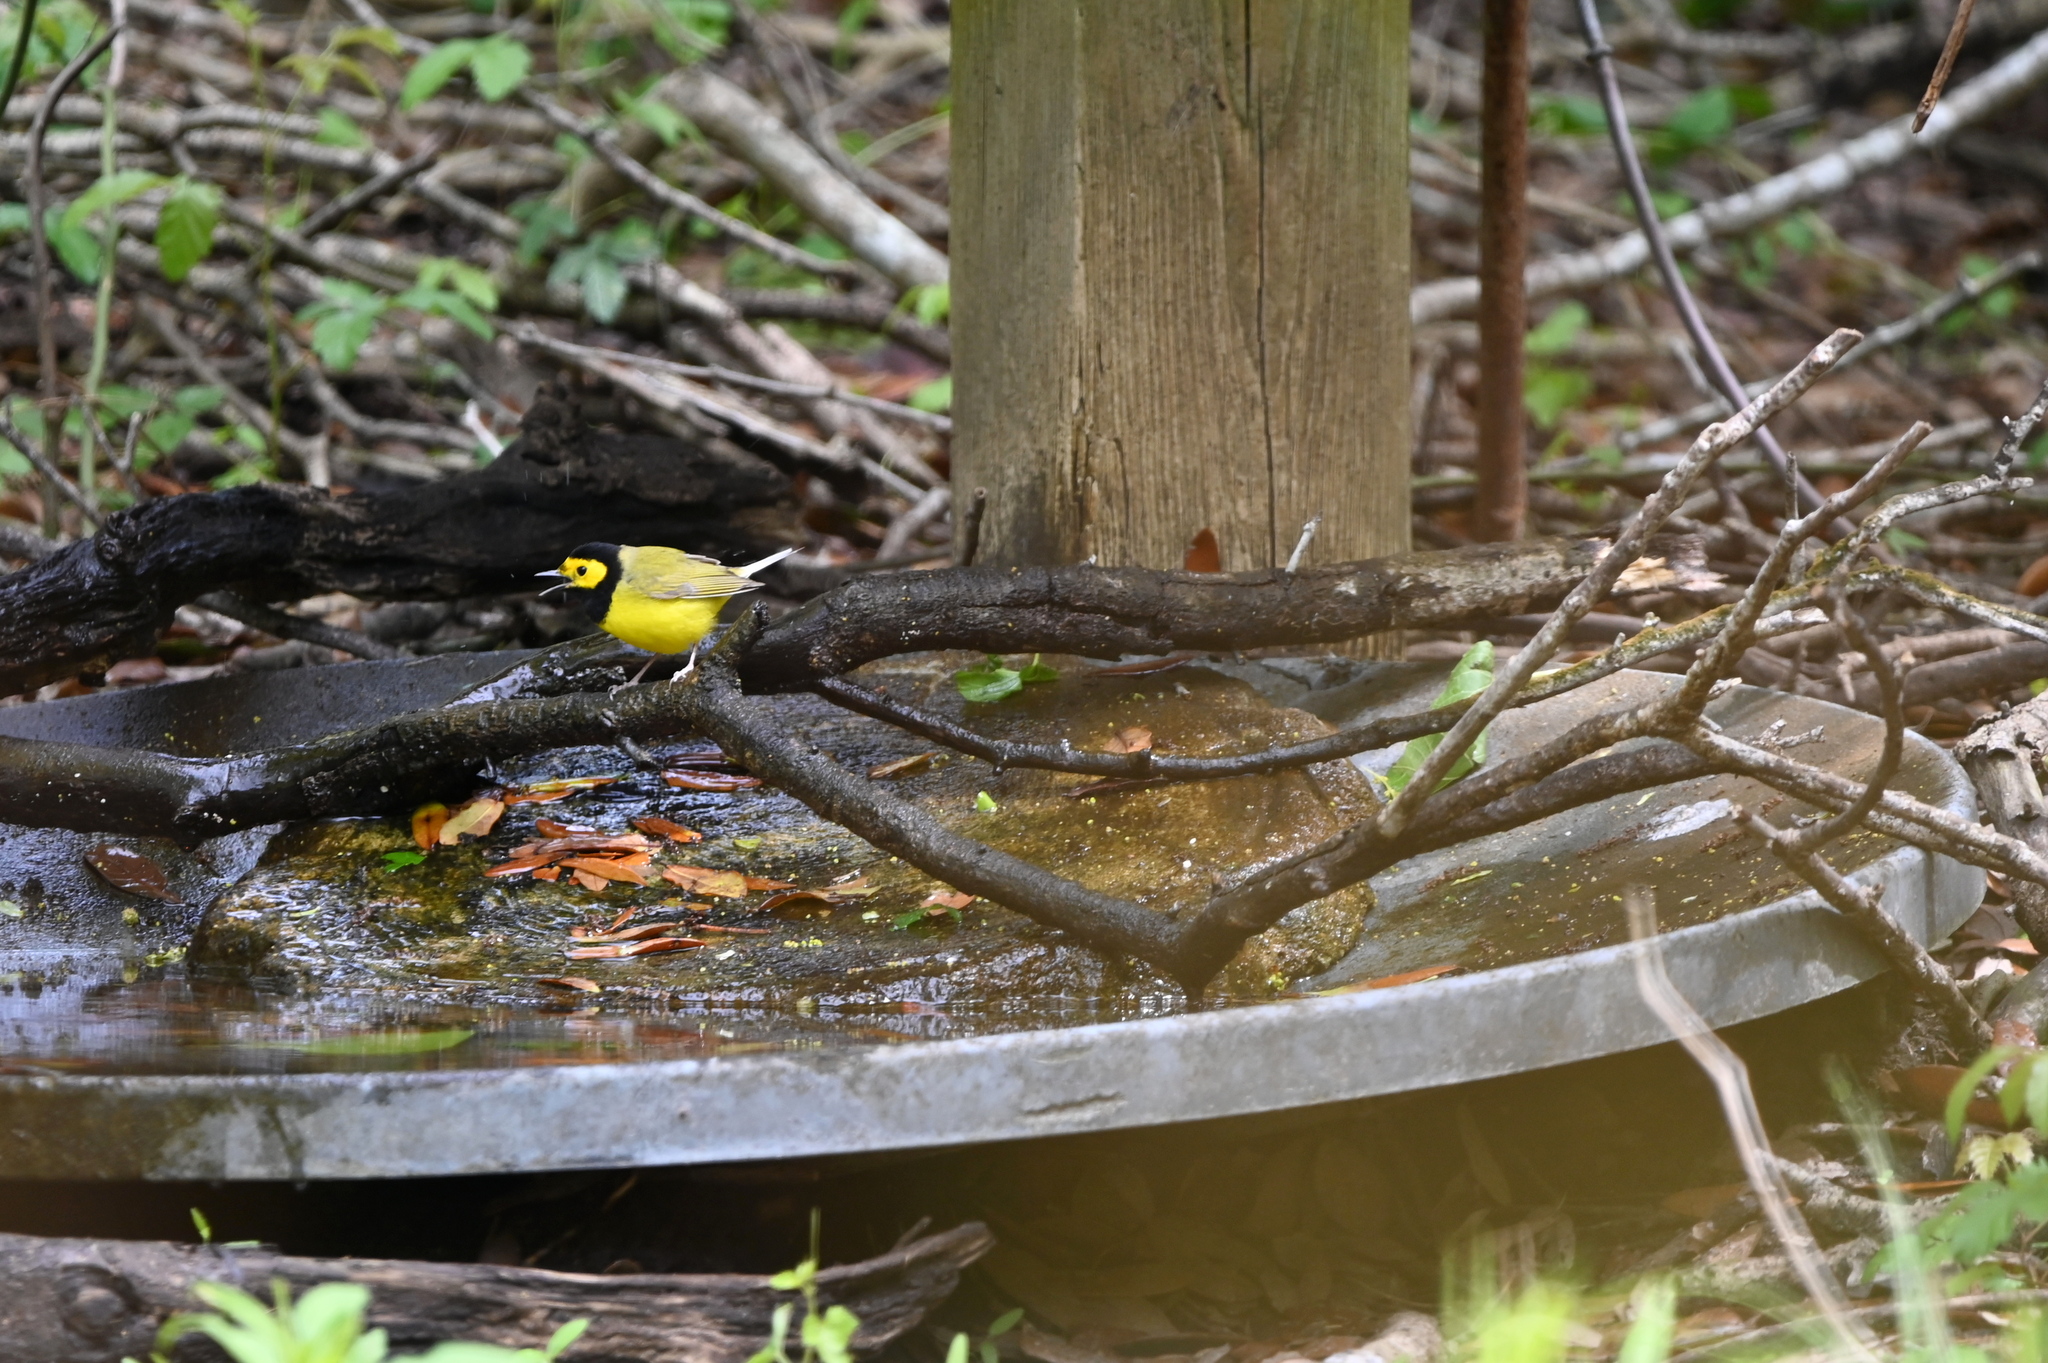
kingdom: Animalia
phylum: Chordata
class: Aves
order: Passeriformes
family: Parulidae
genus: Setophaga
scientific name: Setophaga citrina
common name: Hooded warbler
